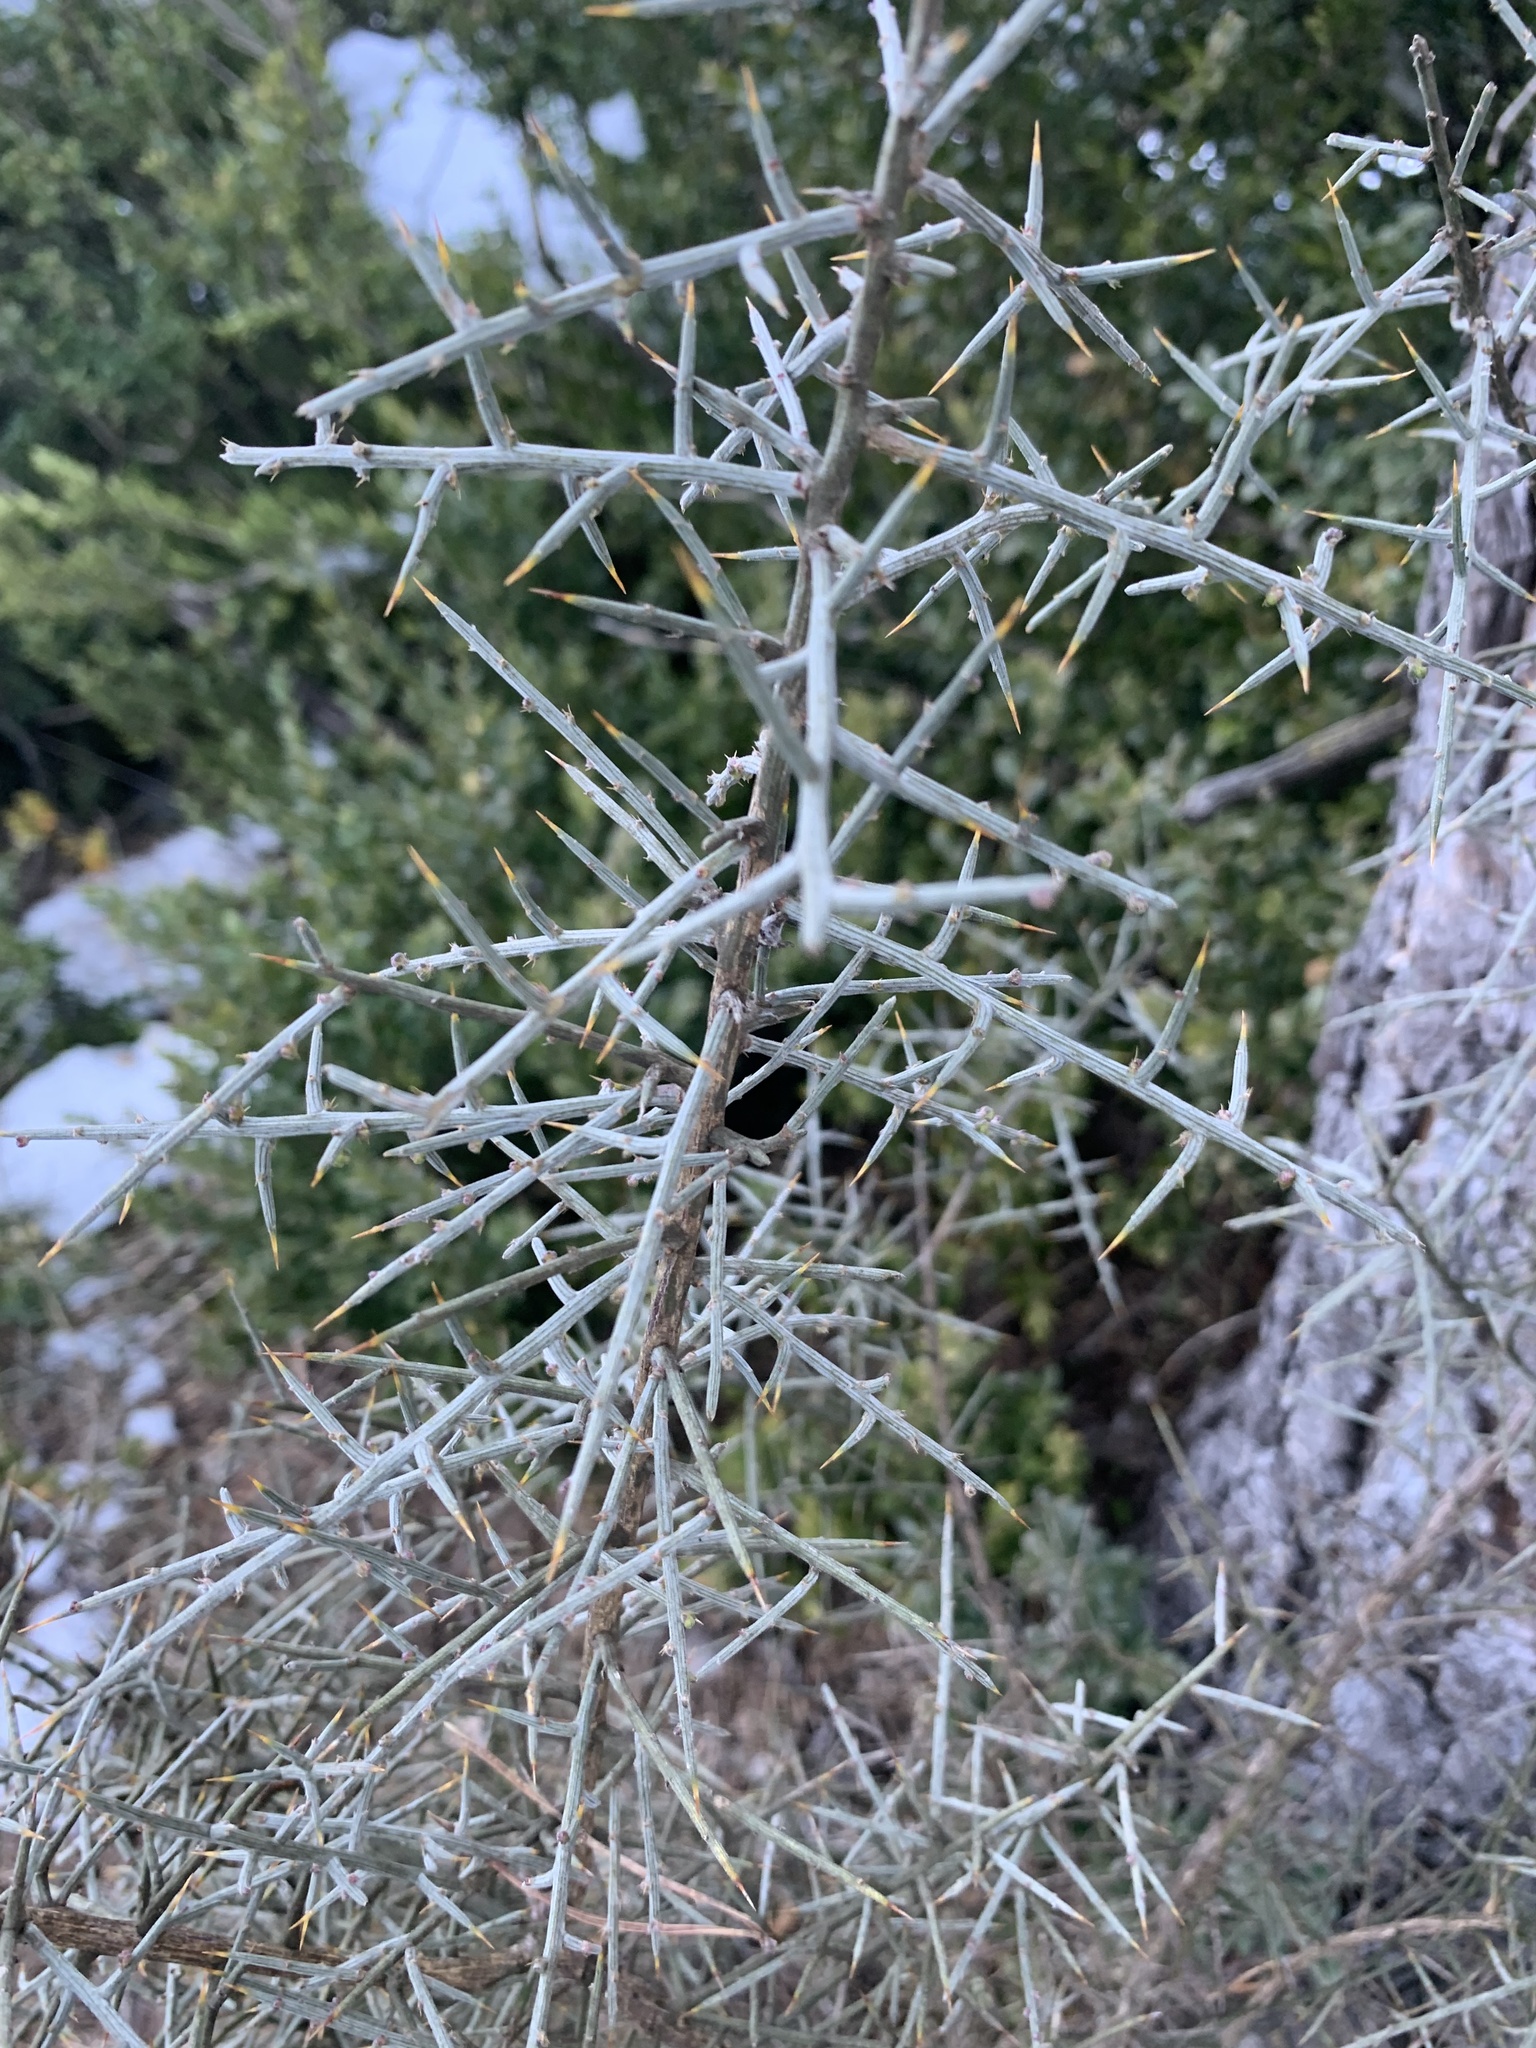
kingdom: Plantae
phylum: Tracheophyta
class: Magnoliopsida
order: Fabales
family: Fabaceae
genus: Genista
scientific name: Genista scorpius
